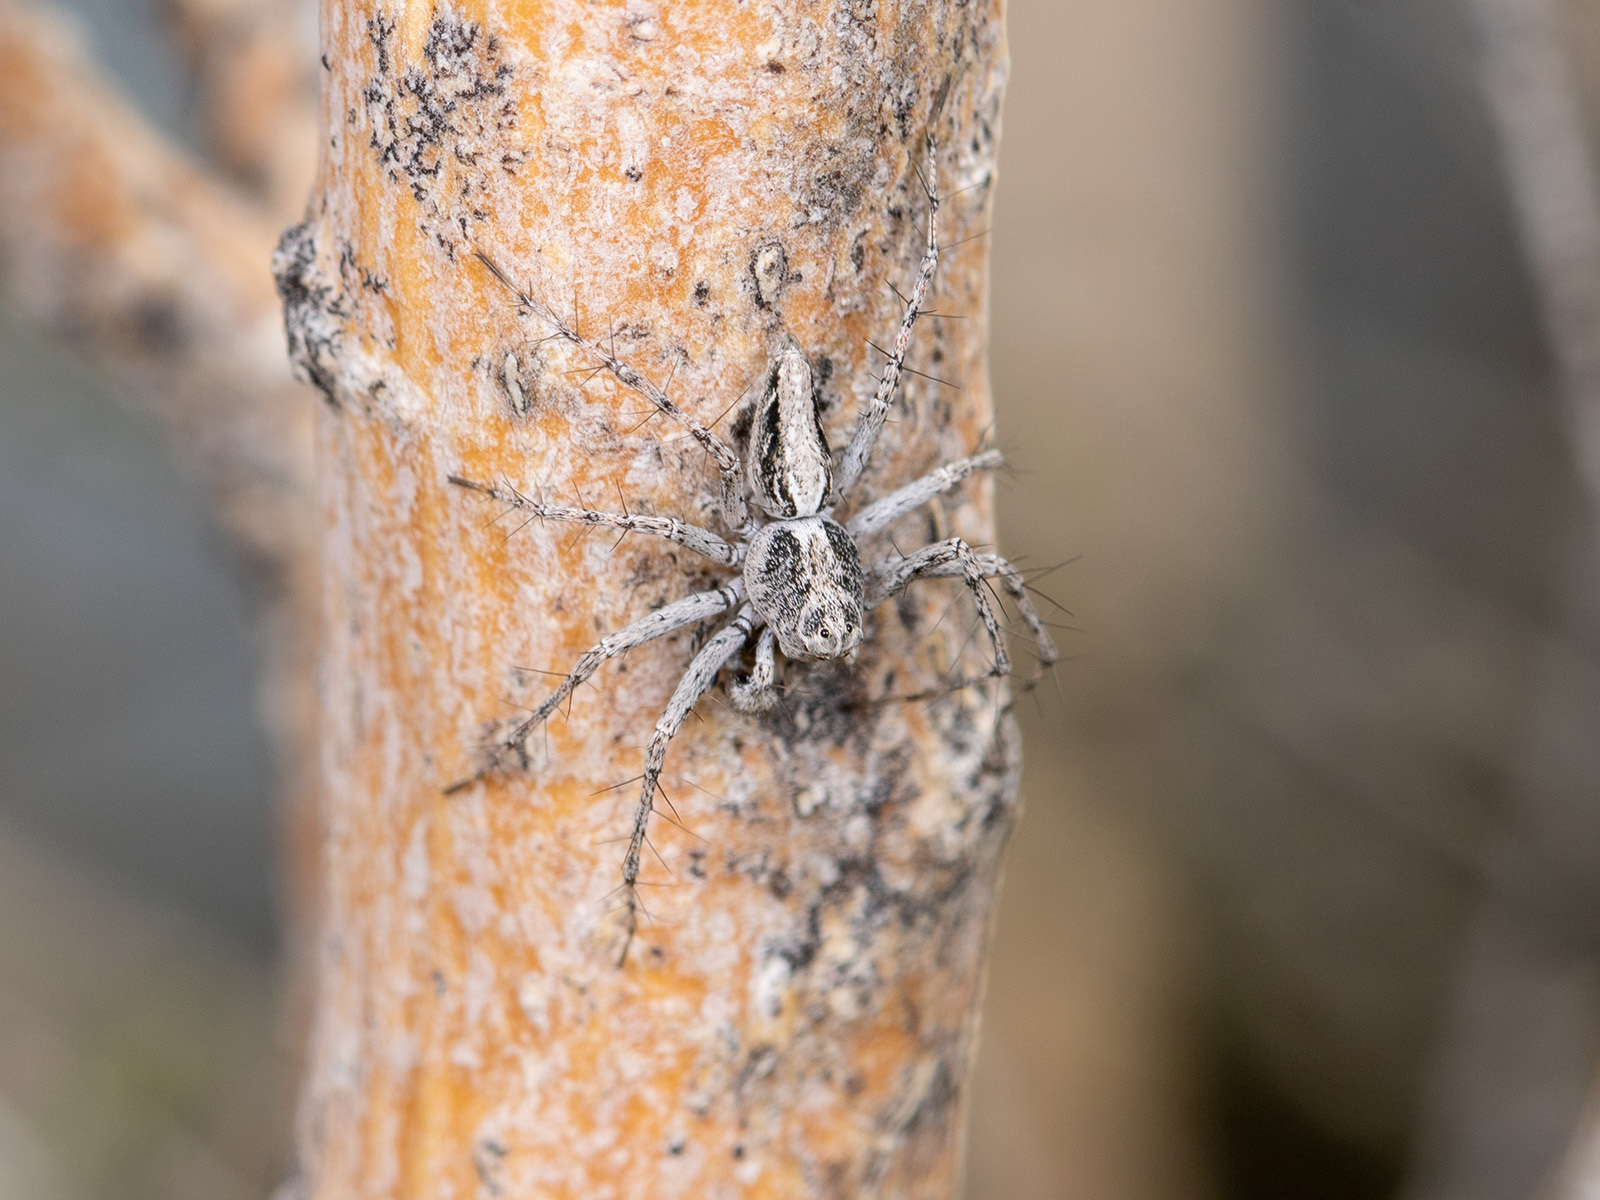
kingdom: Animalia
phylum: Arthropoda
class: Arachnida
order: Araneae
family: Oxyopidae
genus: Oxyopes
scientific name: Oxyopes globifer
